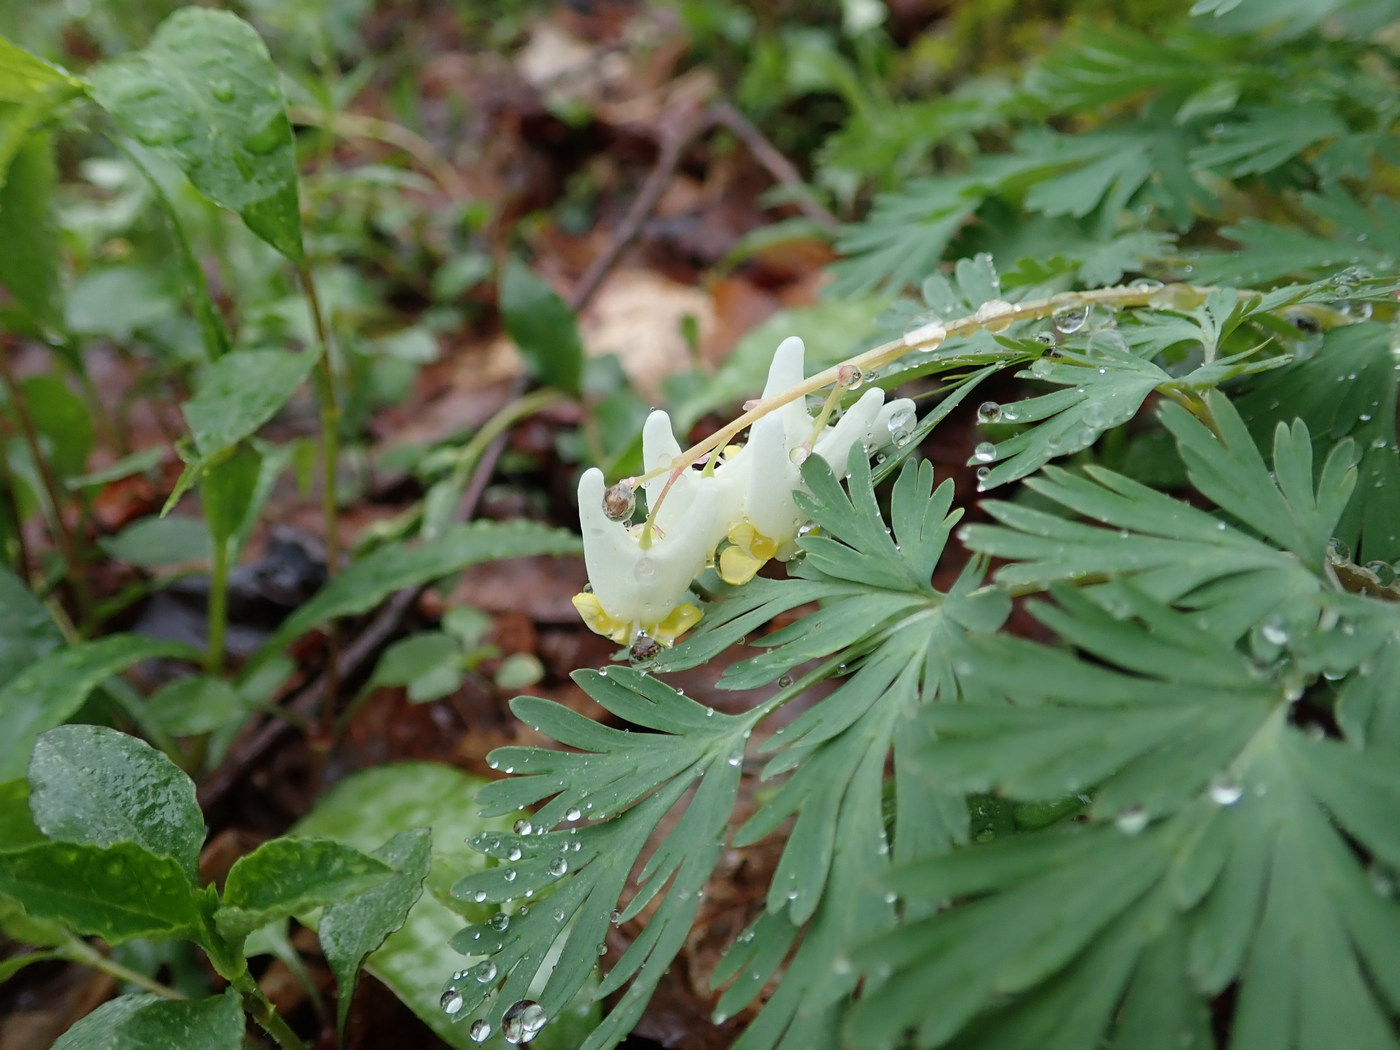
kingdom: Plantae
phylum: Tracheophyta
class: Magnoliopsida
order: Ranunculales
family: Papaveraceae
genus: Dicentra
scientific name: Dicentra cucullaria
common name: Dutchman's breeches
